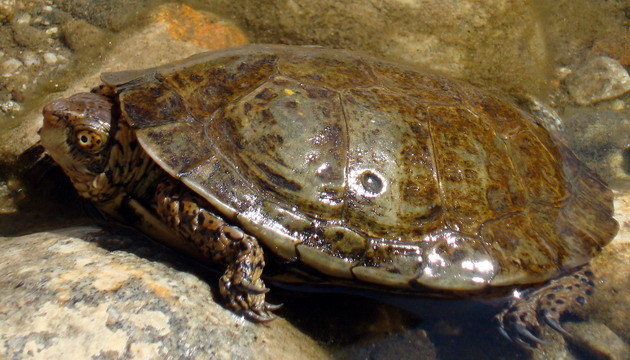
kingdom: Animalia
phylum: Chordata
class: Testudines
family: Emydidae
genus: Actinemys
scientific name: Actinemys marmorata
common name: Western pond turtle
